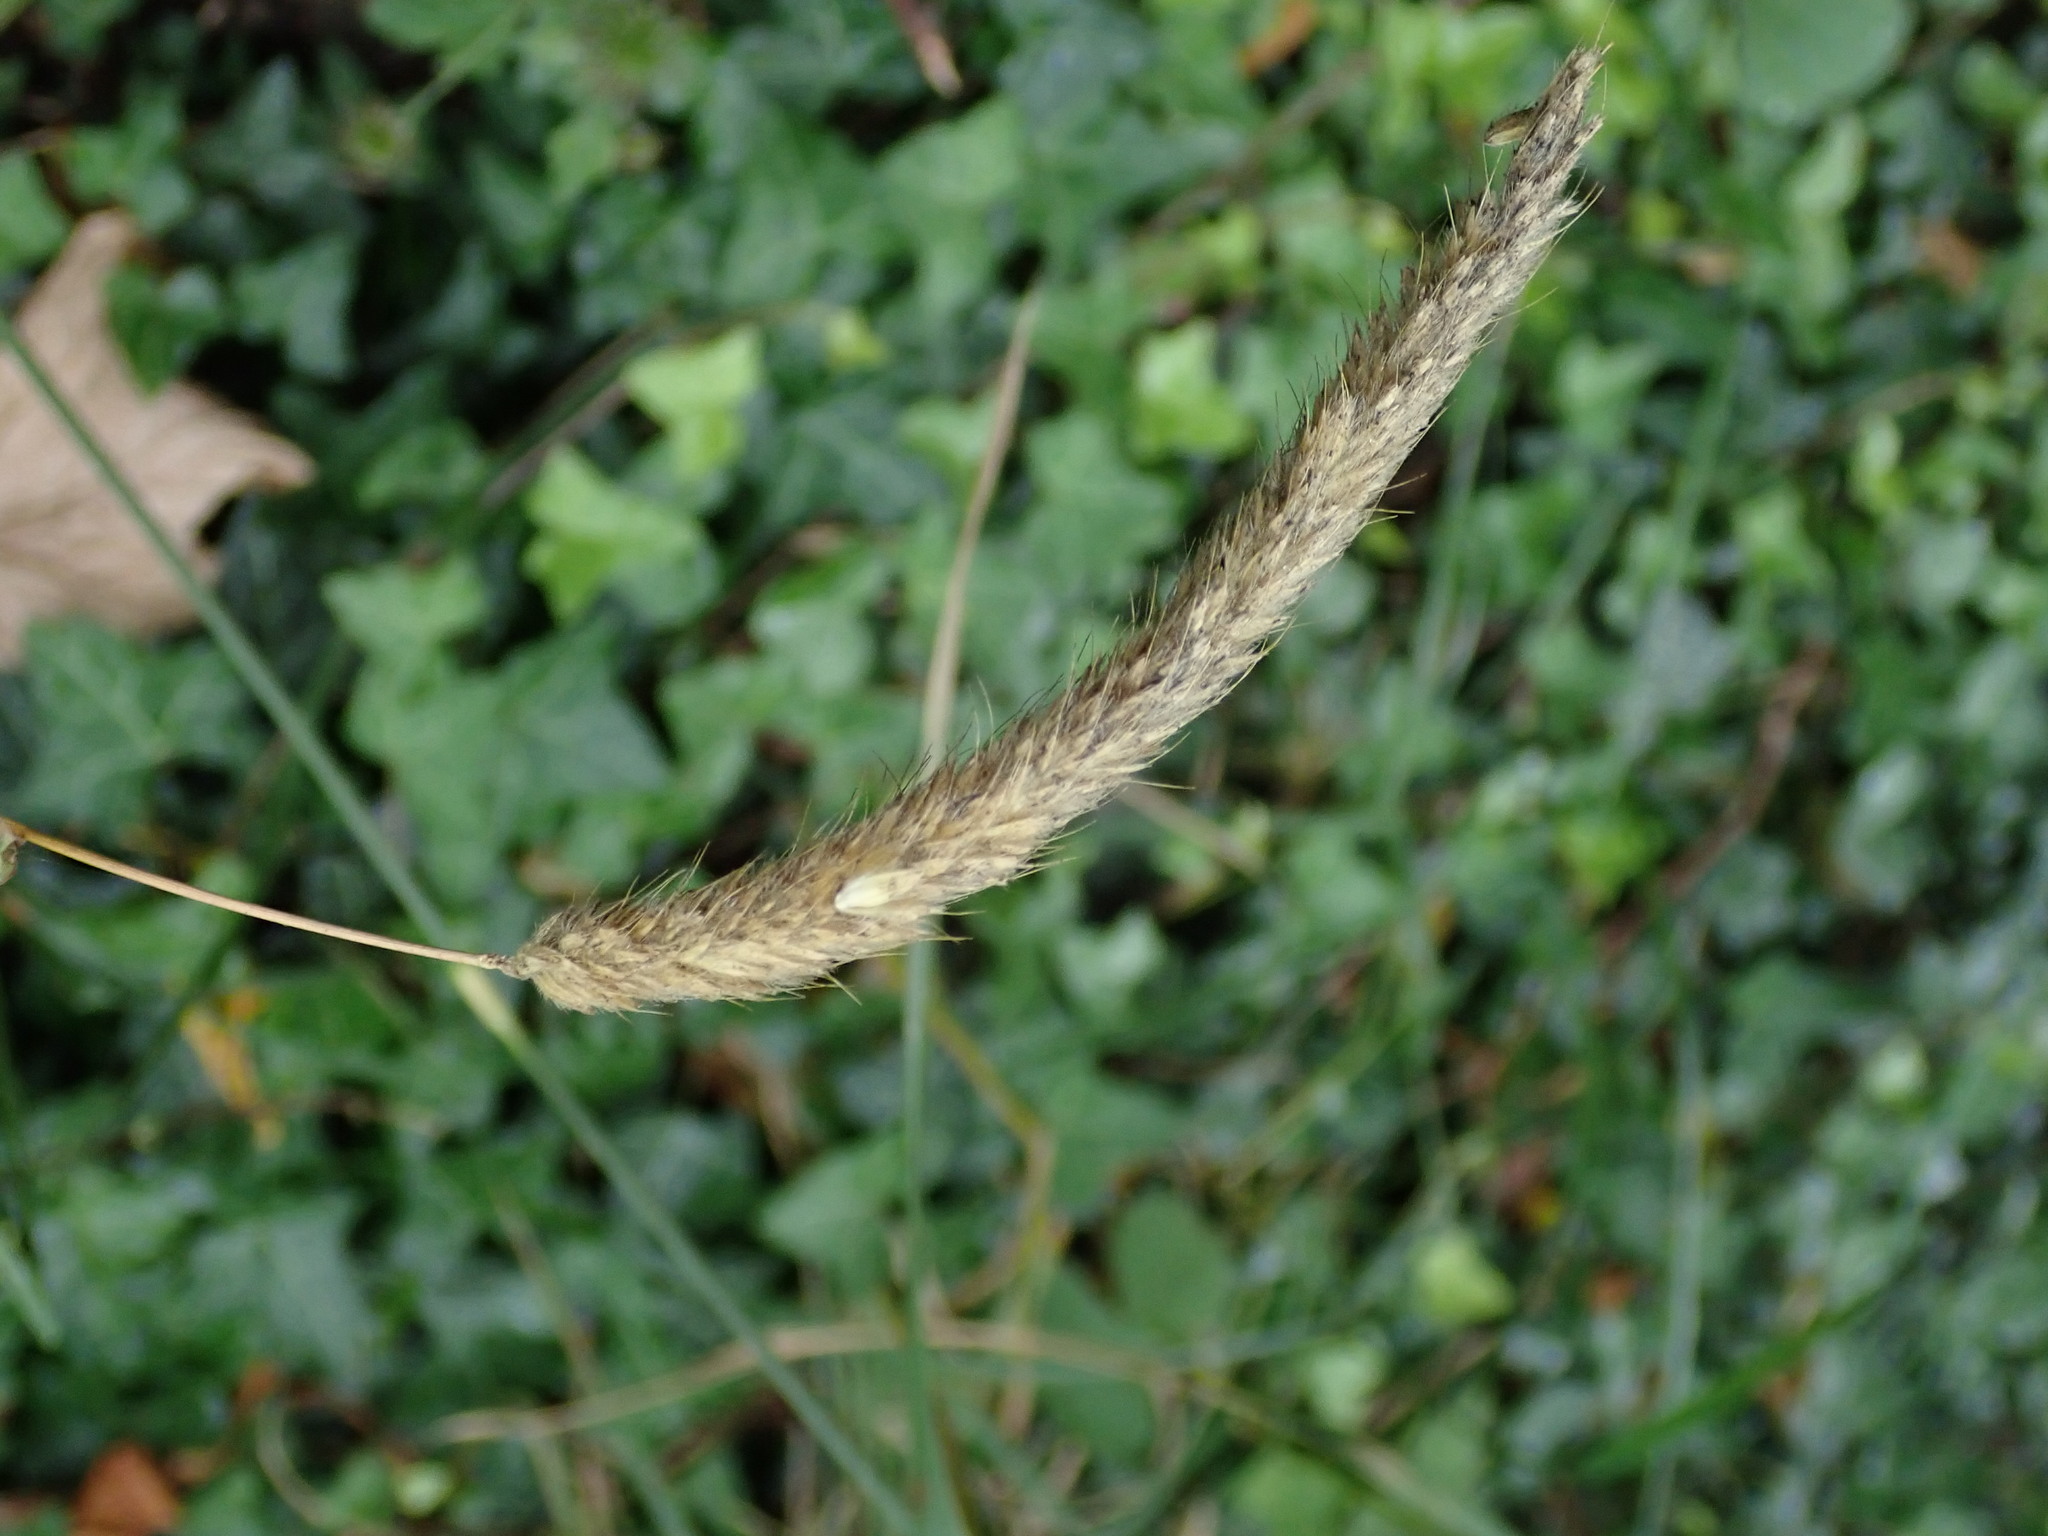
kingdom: Plantae
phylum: Tracheophyta
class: Liliopsida
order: Poales
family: Poaceae
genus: Alopecurus
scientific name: Alopecurus pratensis
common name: Meadow foxtail
